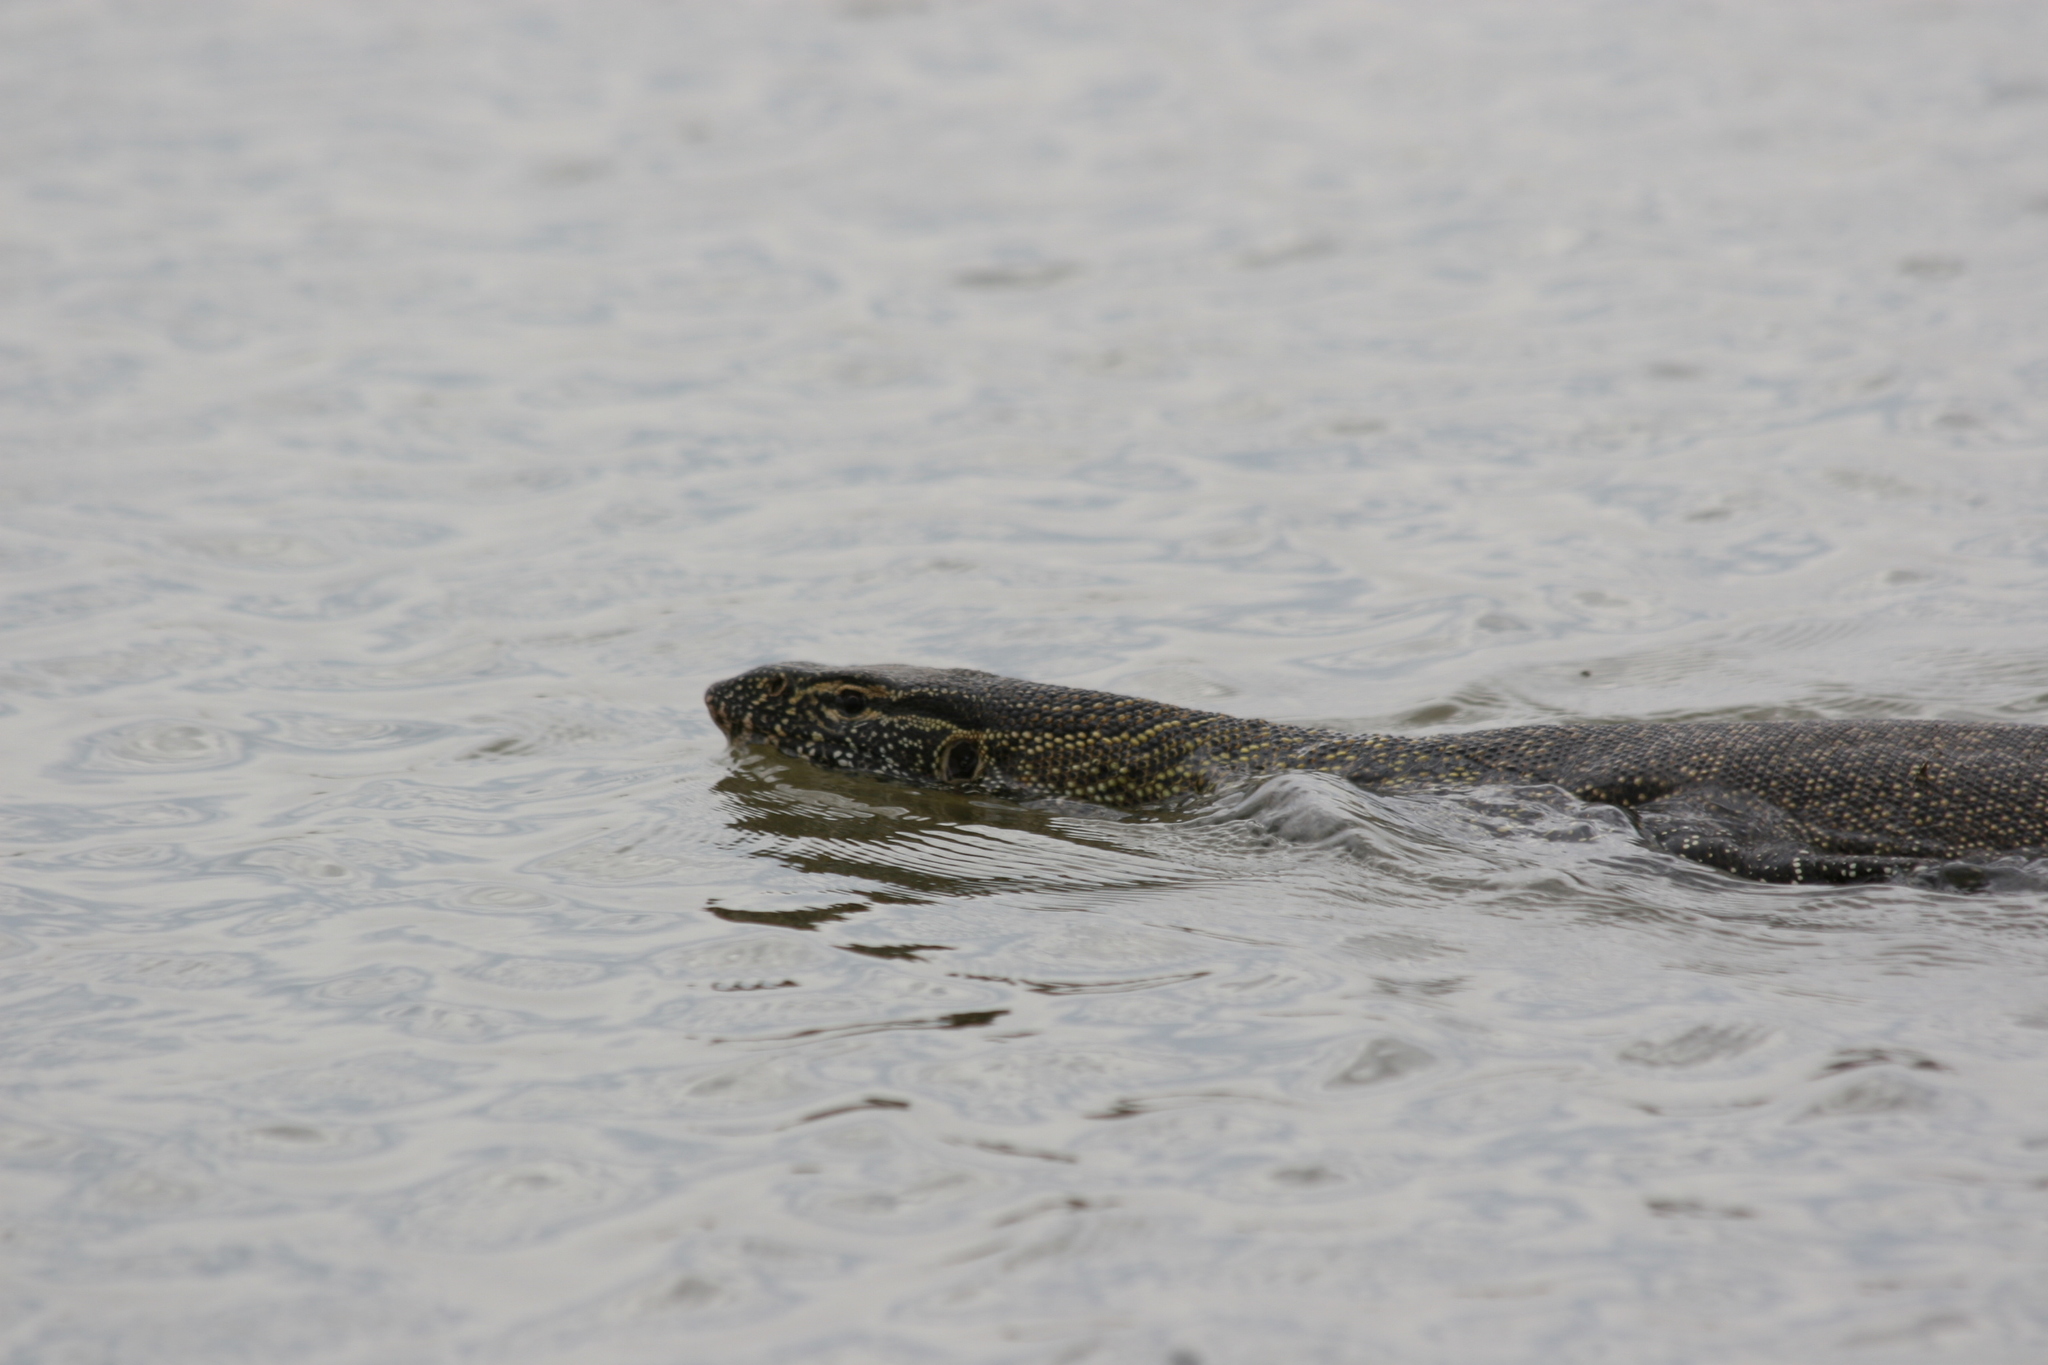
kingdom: Animalia
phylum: Chordata
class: Squamata
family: Varanidae
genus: Varanus
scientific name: Varanus niloticus
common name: Nile monitor
